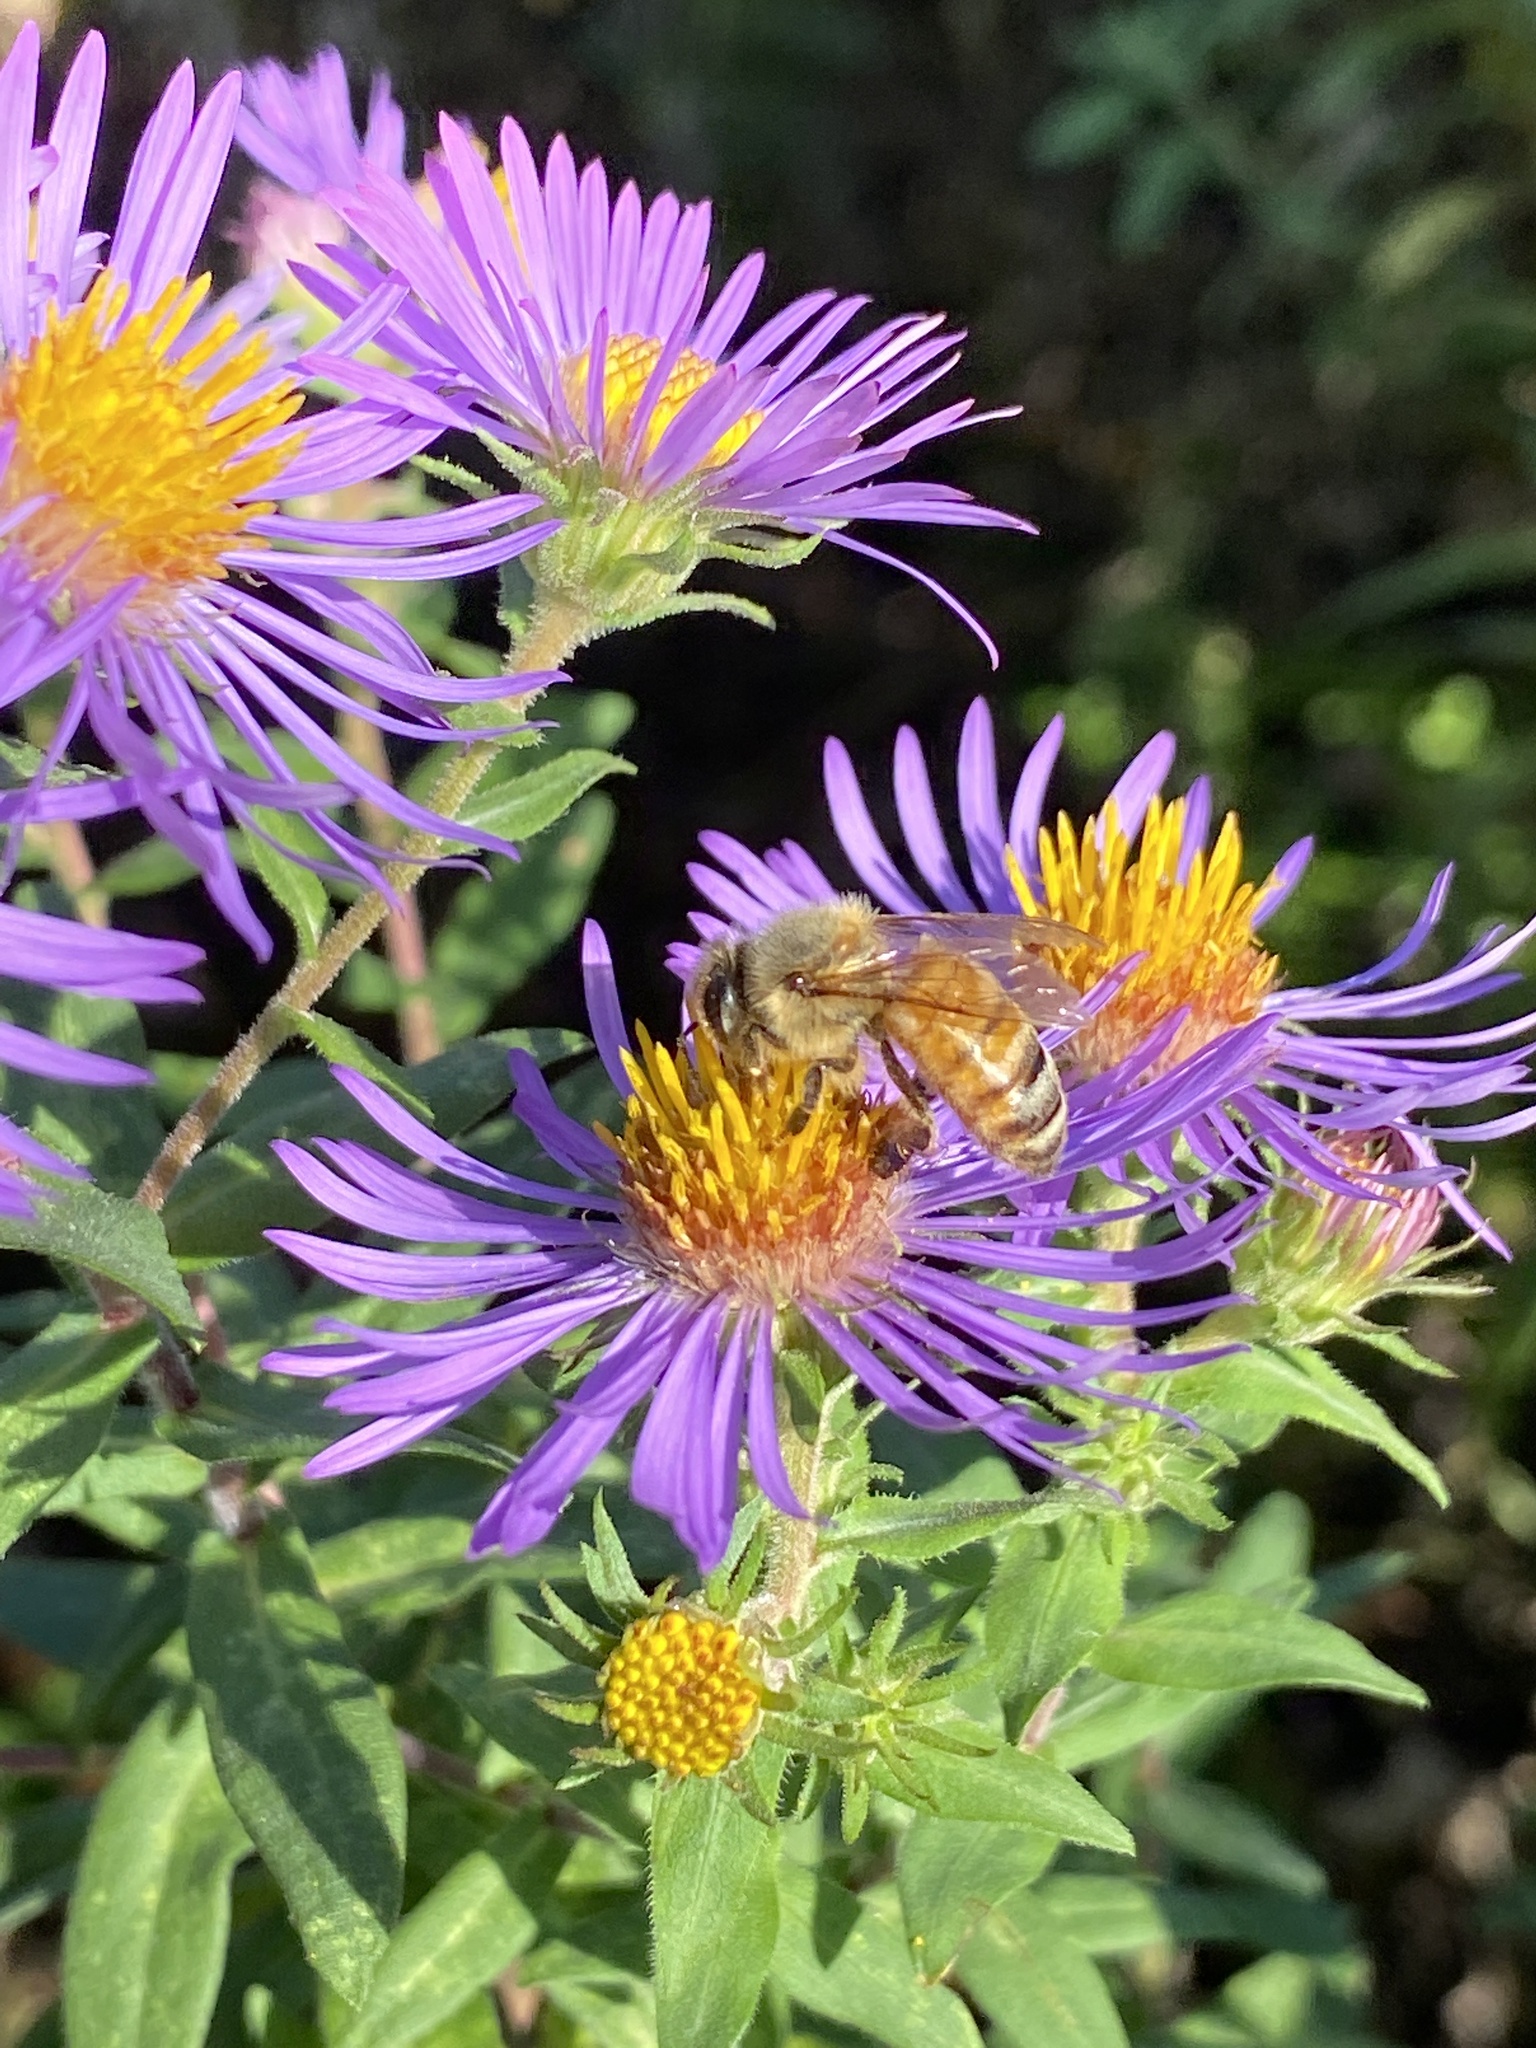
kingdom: Animalia
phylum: Arthropoda
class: Insecta
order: Hymenoptera
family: Apidae
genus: Apis
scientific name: Apis mellifera
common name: Honey bee
